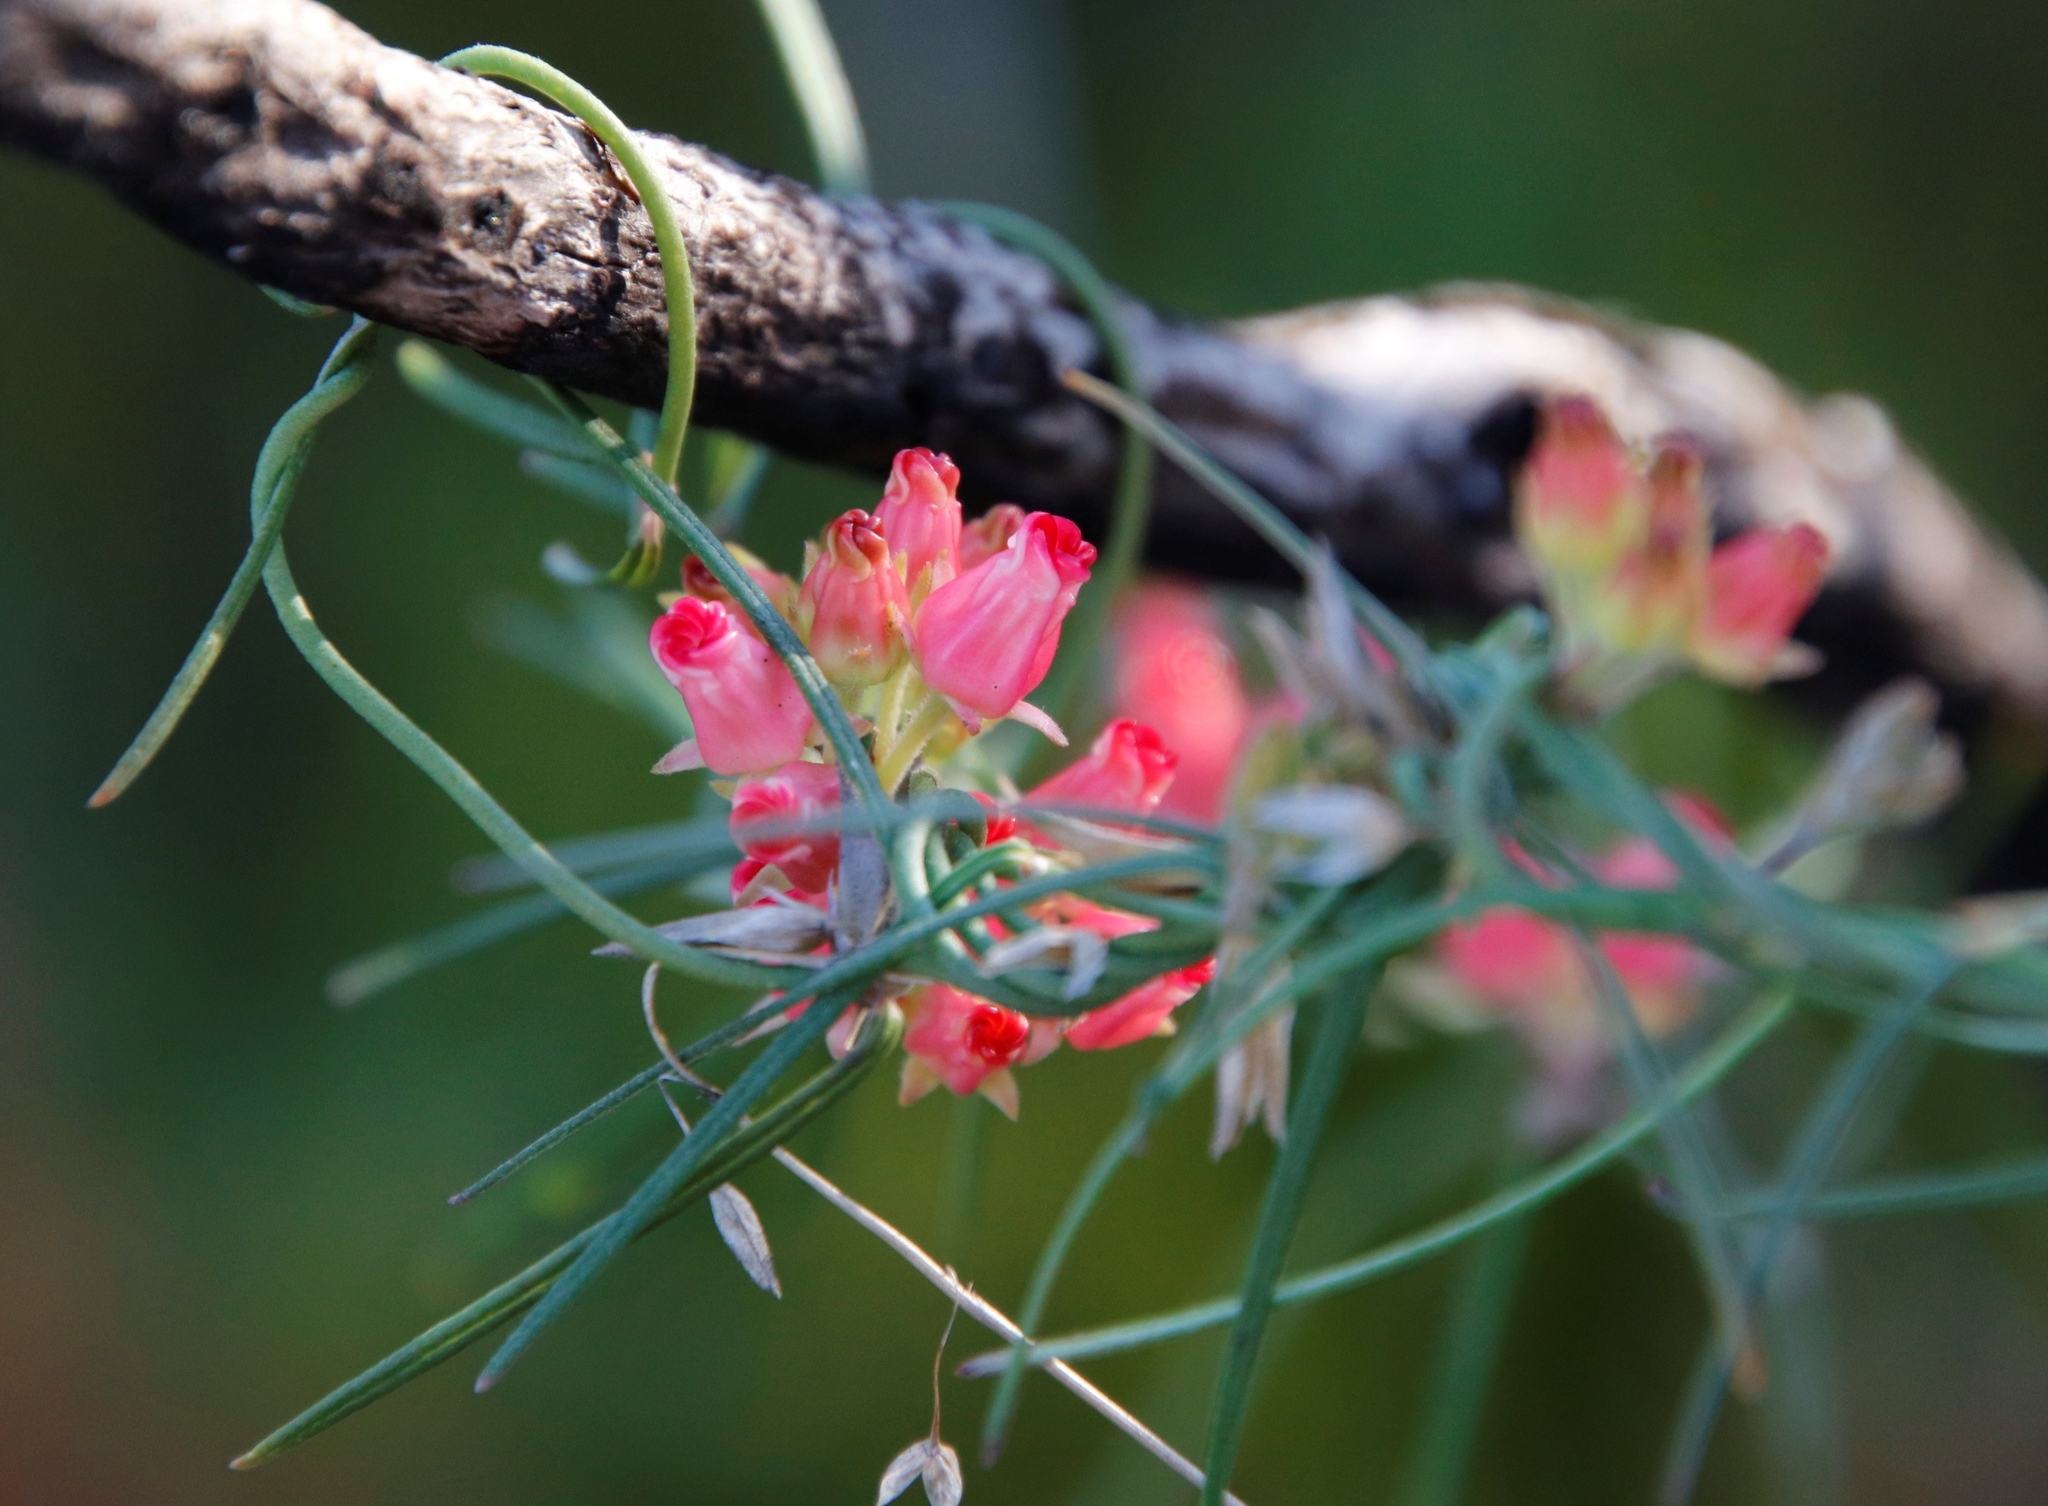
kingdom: Plantae
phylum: Tracheophyta
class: Magnoliopsida
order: Gentianales
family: Apocynaceae
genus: Microloma
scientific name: Microloma tenuifolium
